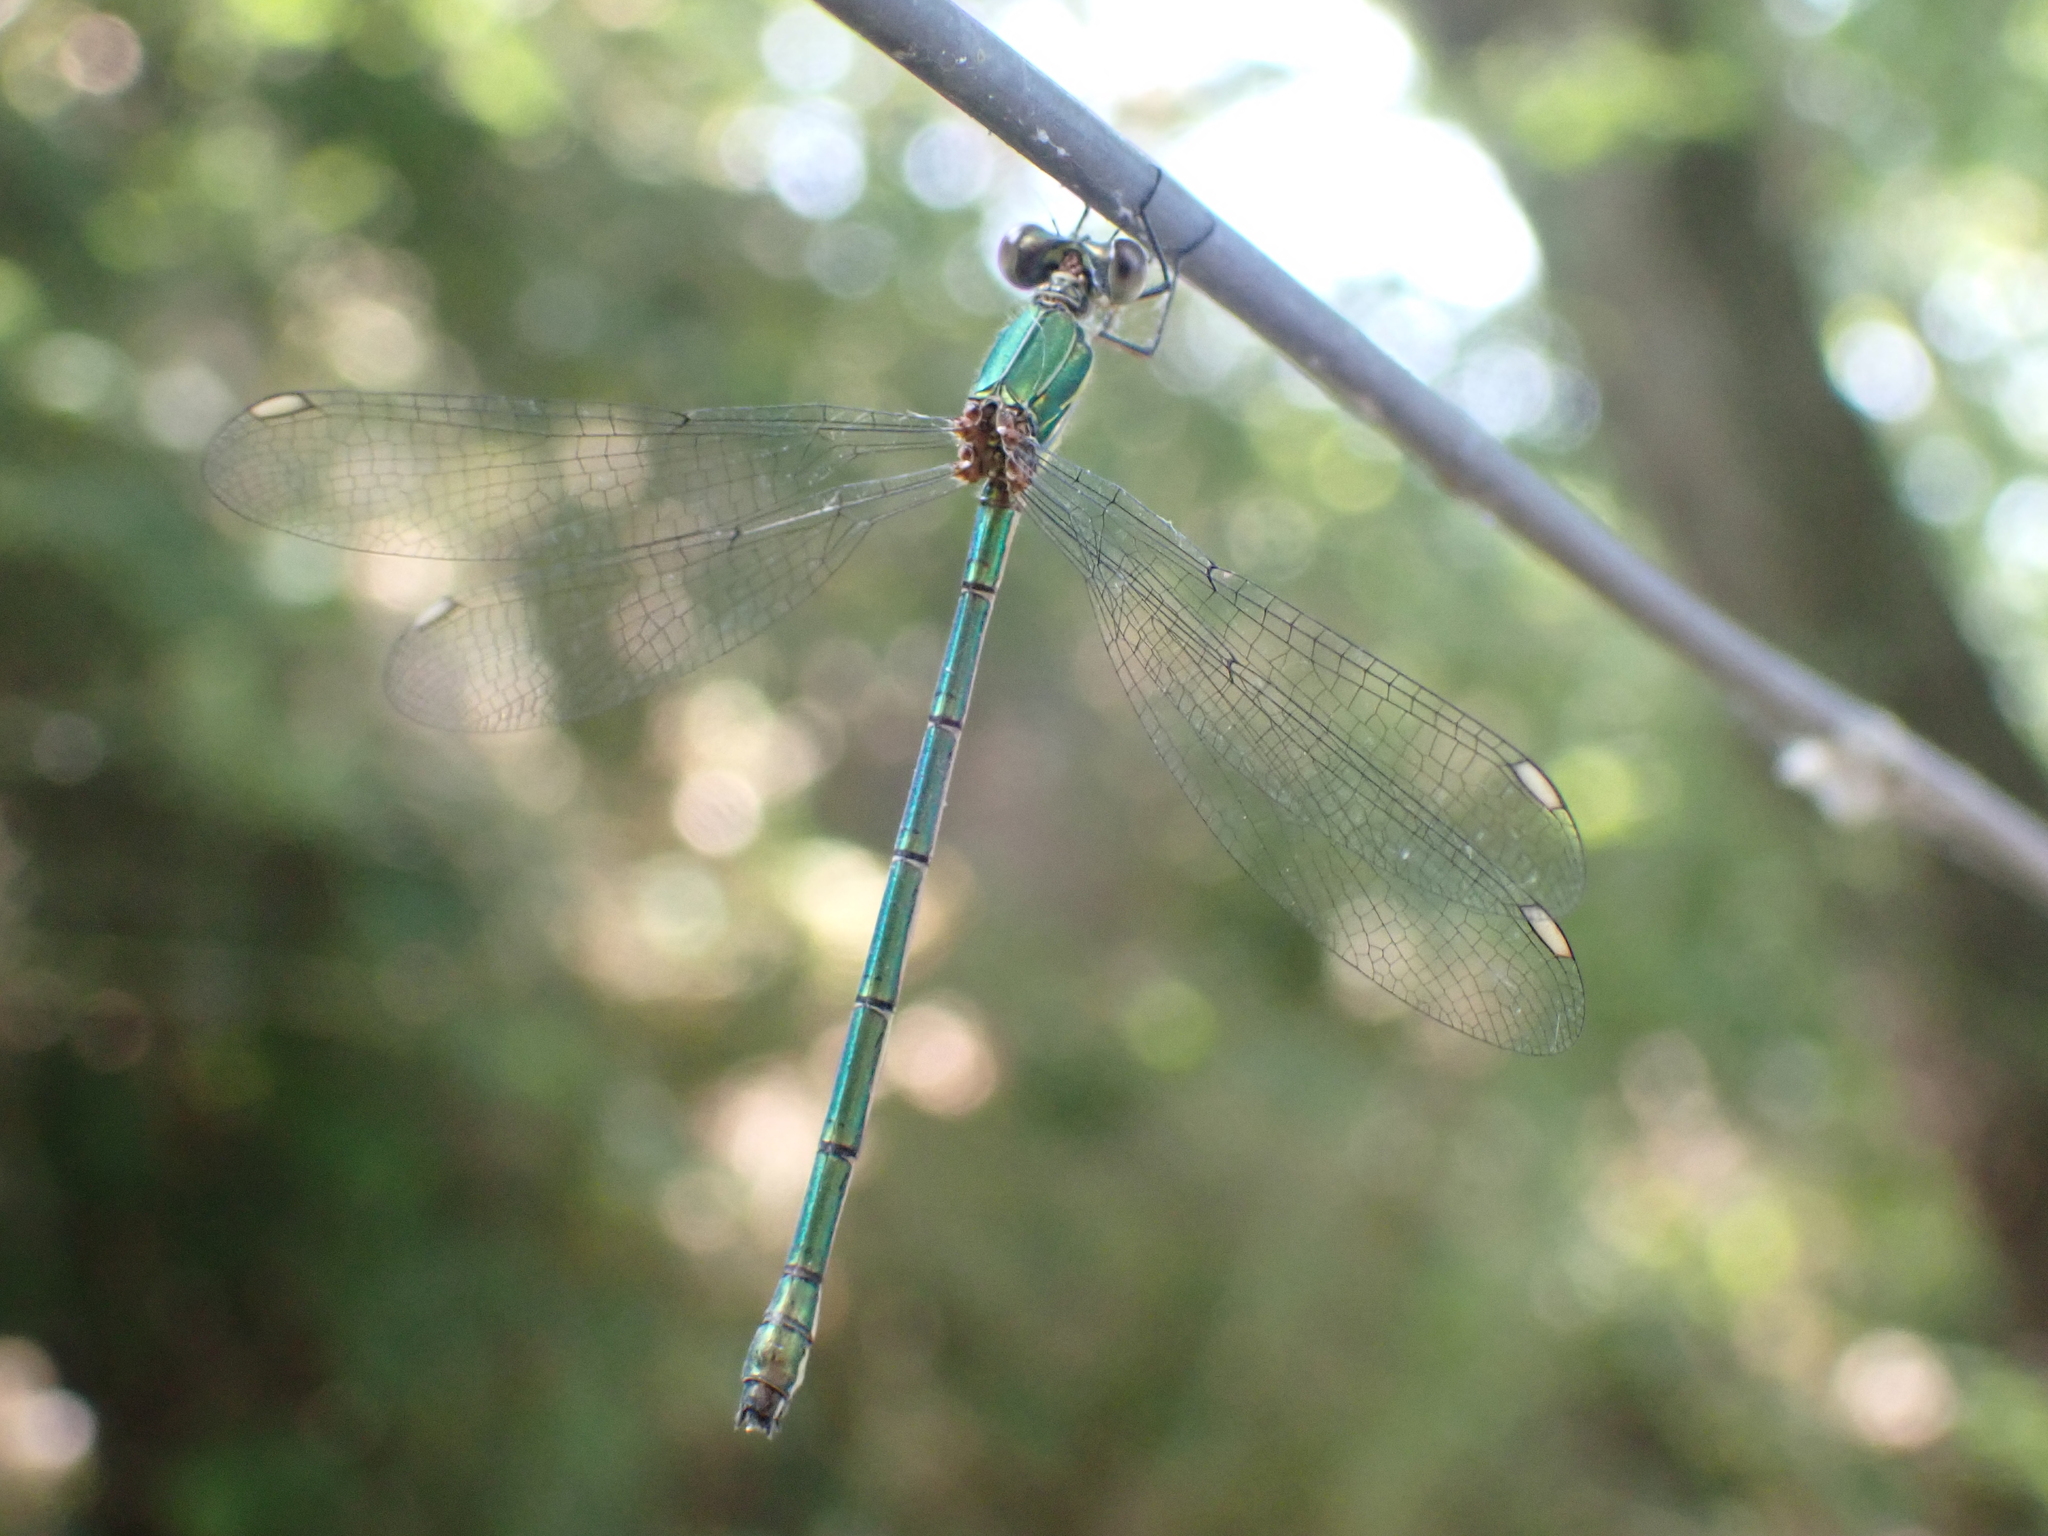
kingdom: Animalia
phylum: Arthropoda
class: Insecta
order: Odonata
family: Lestidae
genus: Chalcolestes
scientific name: Chalcolestes viridis
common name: Green emerald damselfly
